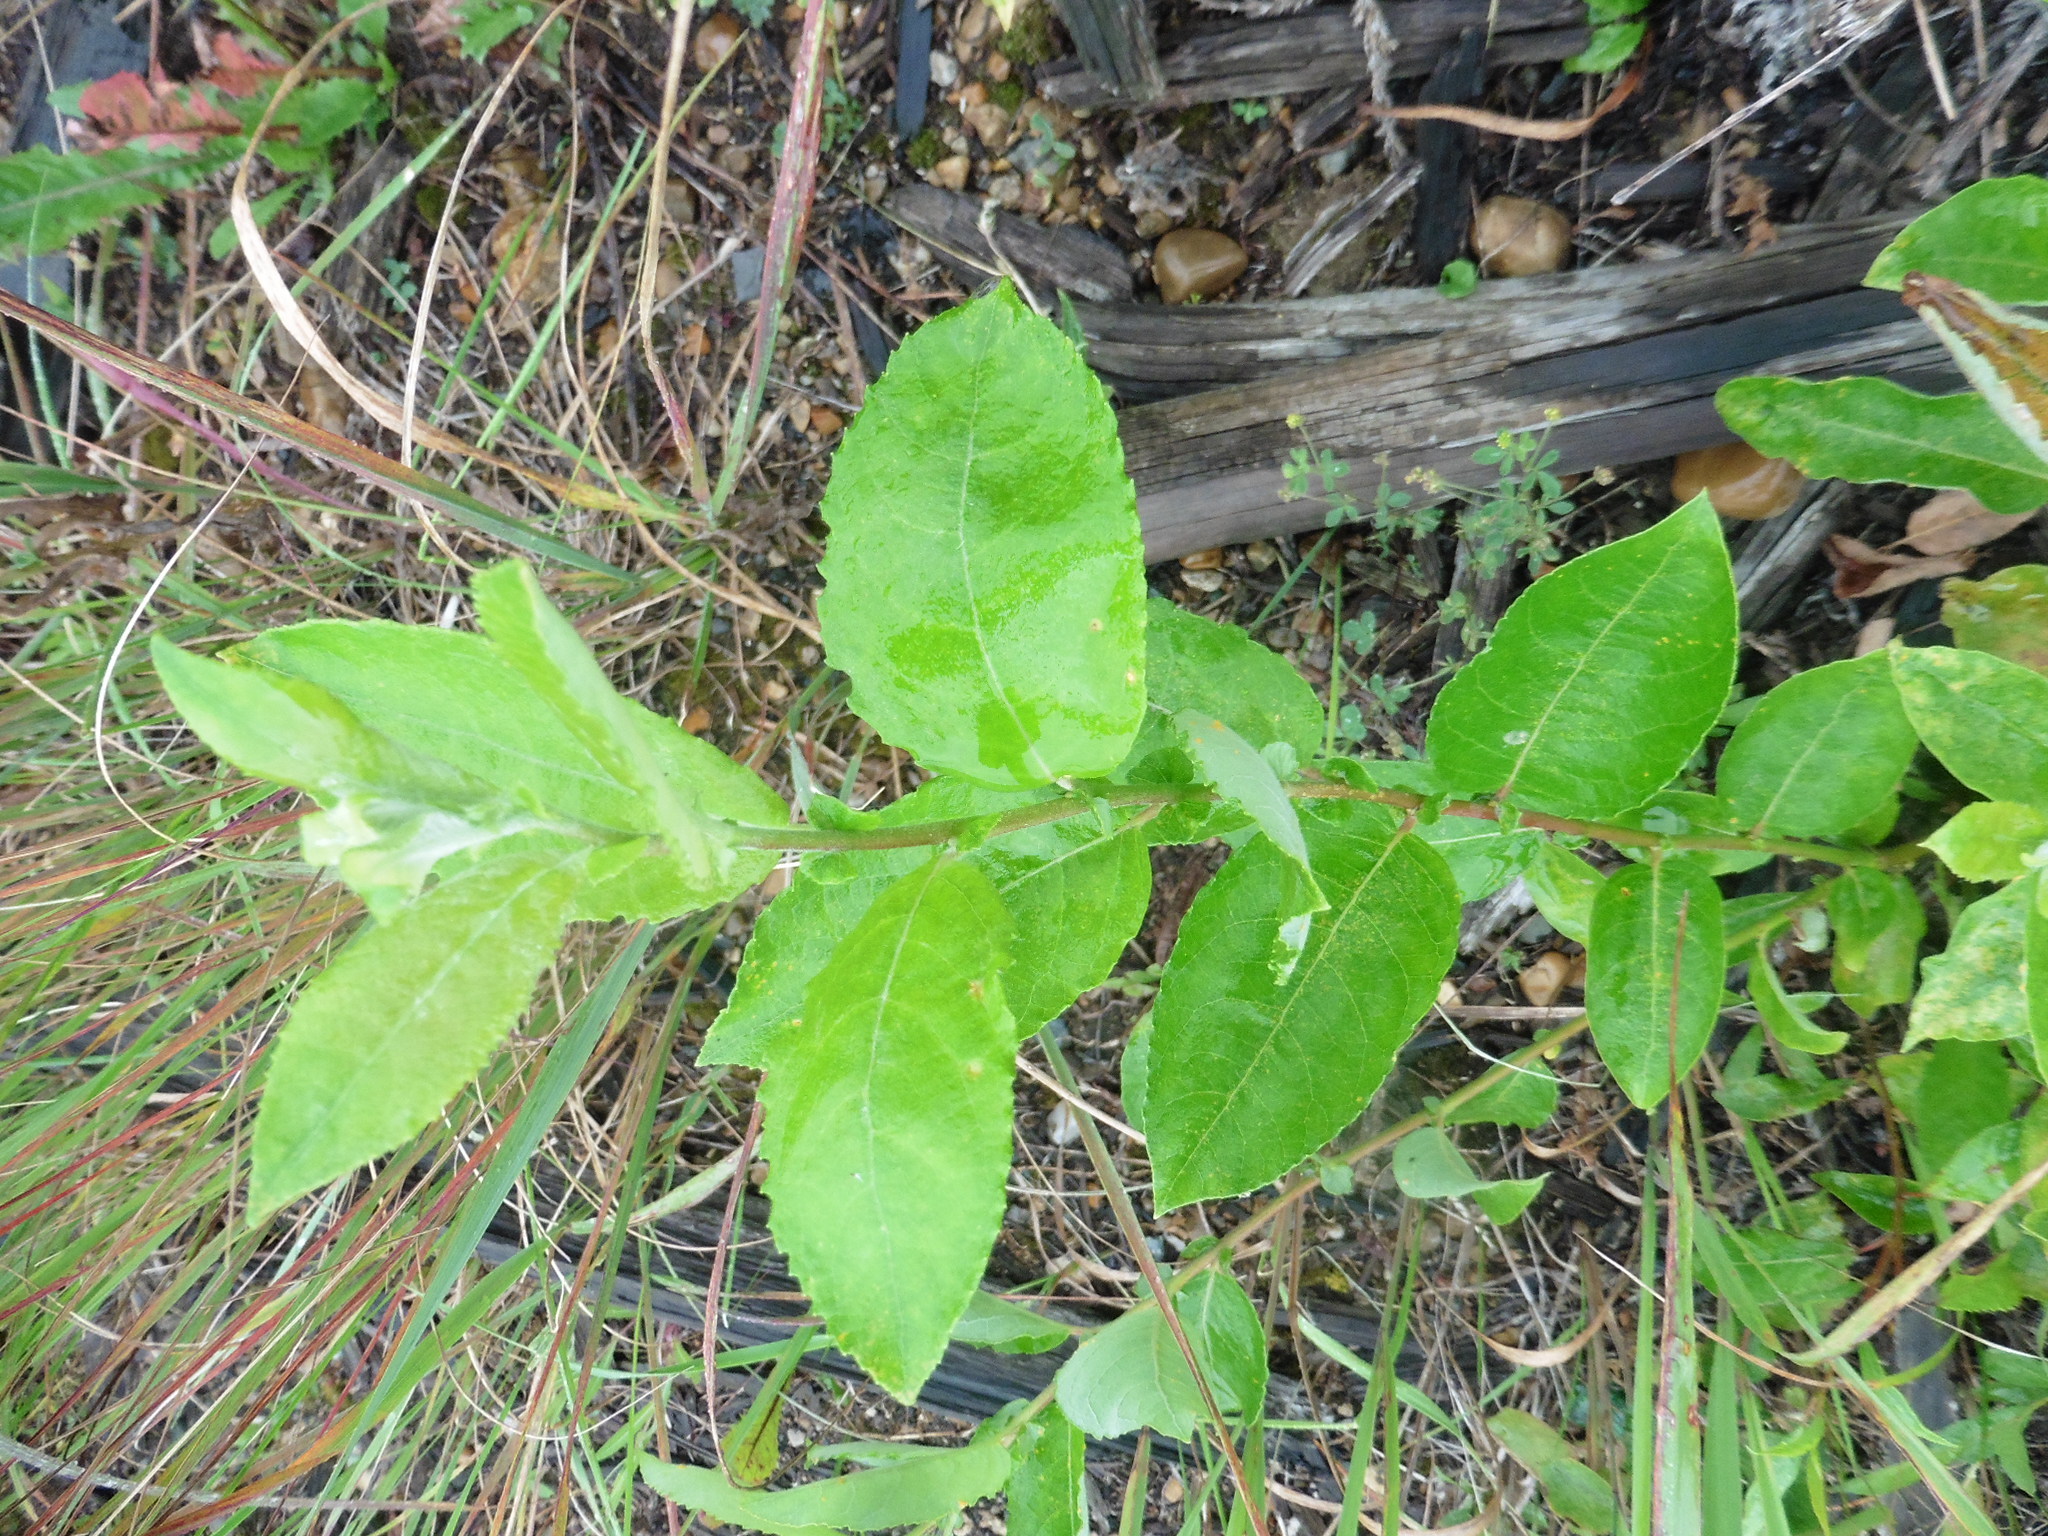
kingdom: Plantae
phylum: Tracheophyta
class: Magnoliopsida
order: Malpighiales
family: Salicaceae
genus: Salix
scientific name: Salix caprea
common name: Goat willow
